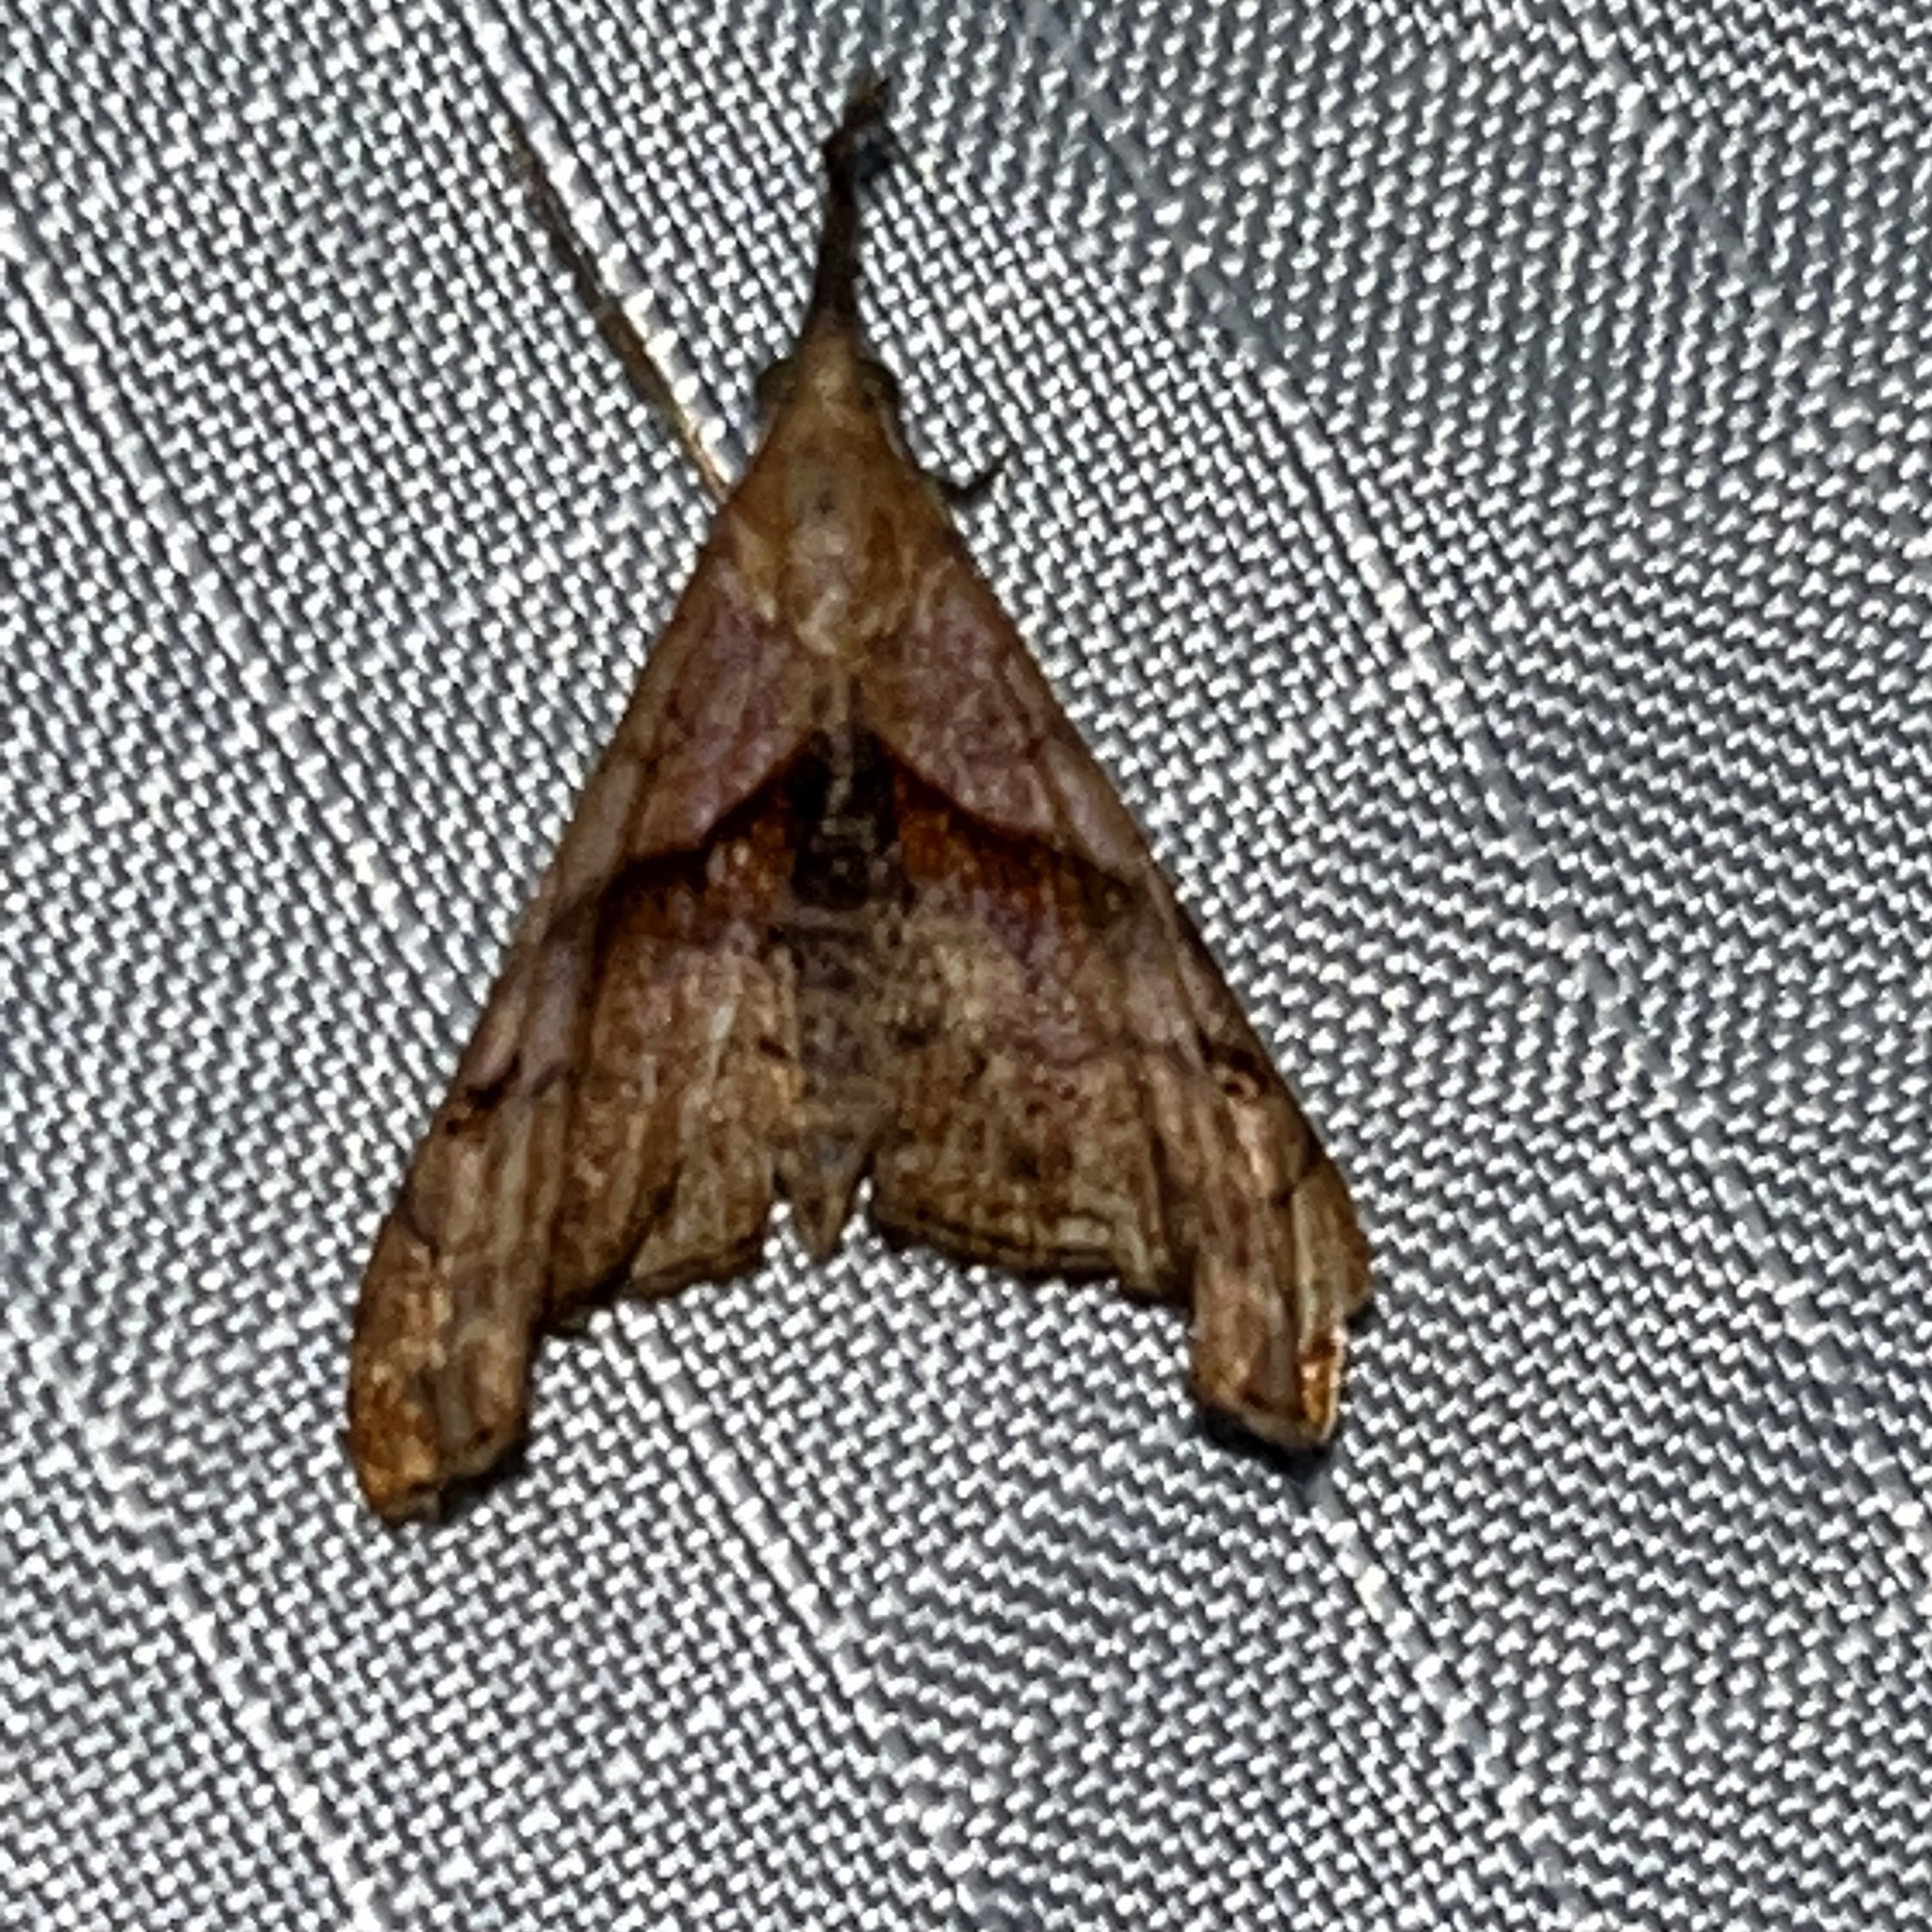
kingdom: Animalia
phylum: Arthropoda
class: Insecta
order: Lepidoptera
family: Erebidae
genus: Palthis
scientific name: Palthis angulalis
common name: Dark-spotted palthis moth
